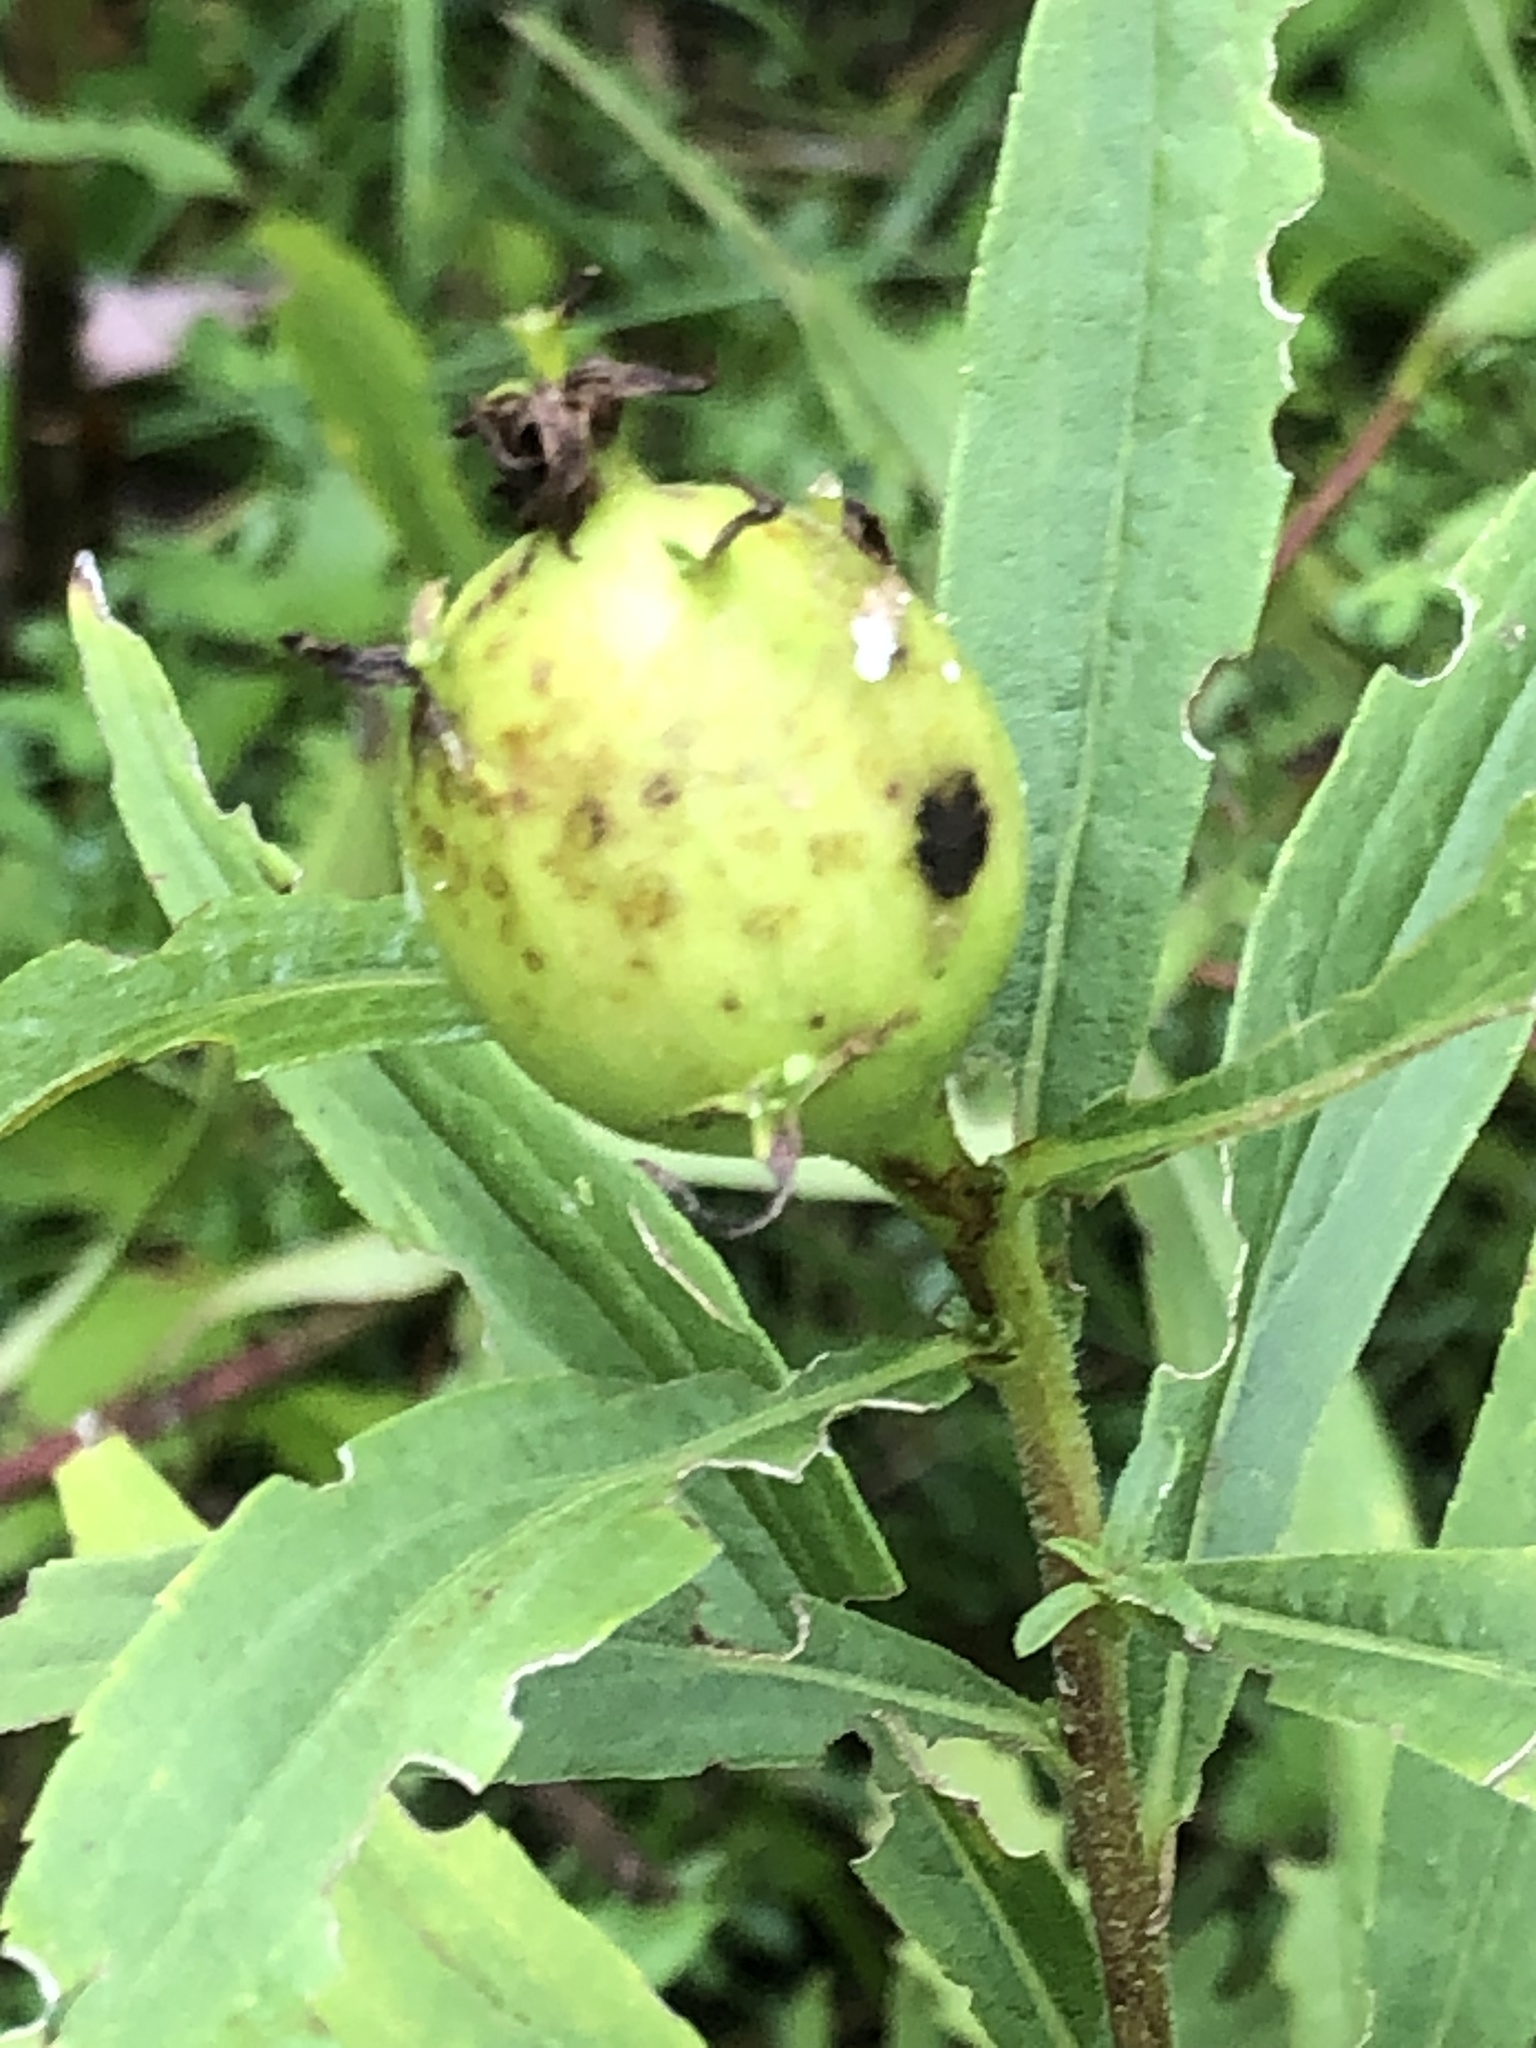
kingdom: Animalia
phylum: Arthropoda
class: Insecta
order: Diptera
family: Tephritidae
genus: Eurosta
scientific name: Eurosta solidaginis
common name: Goldenrod gall fly
